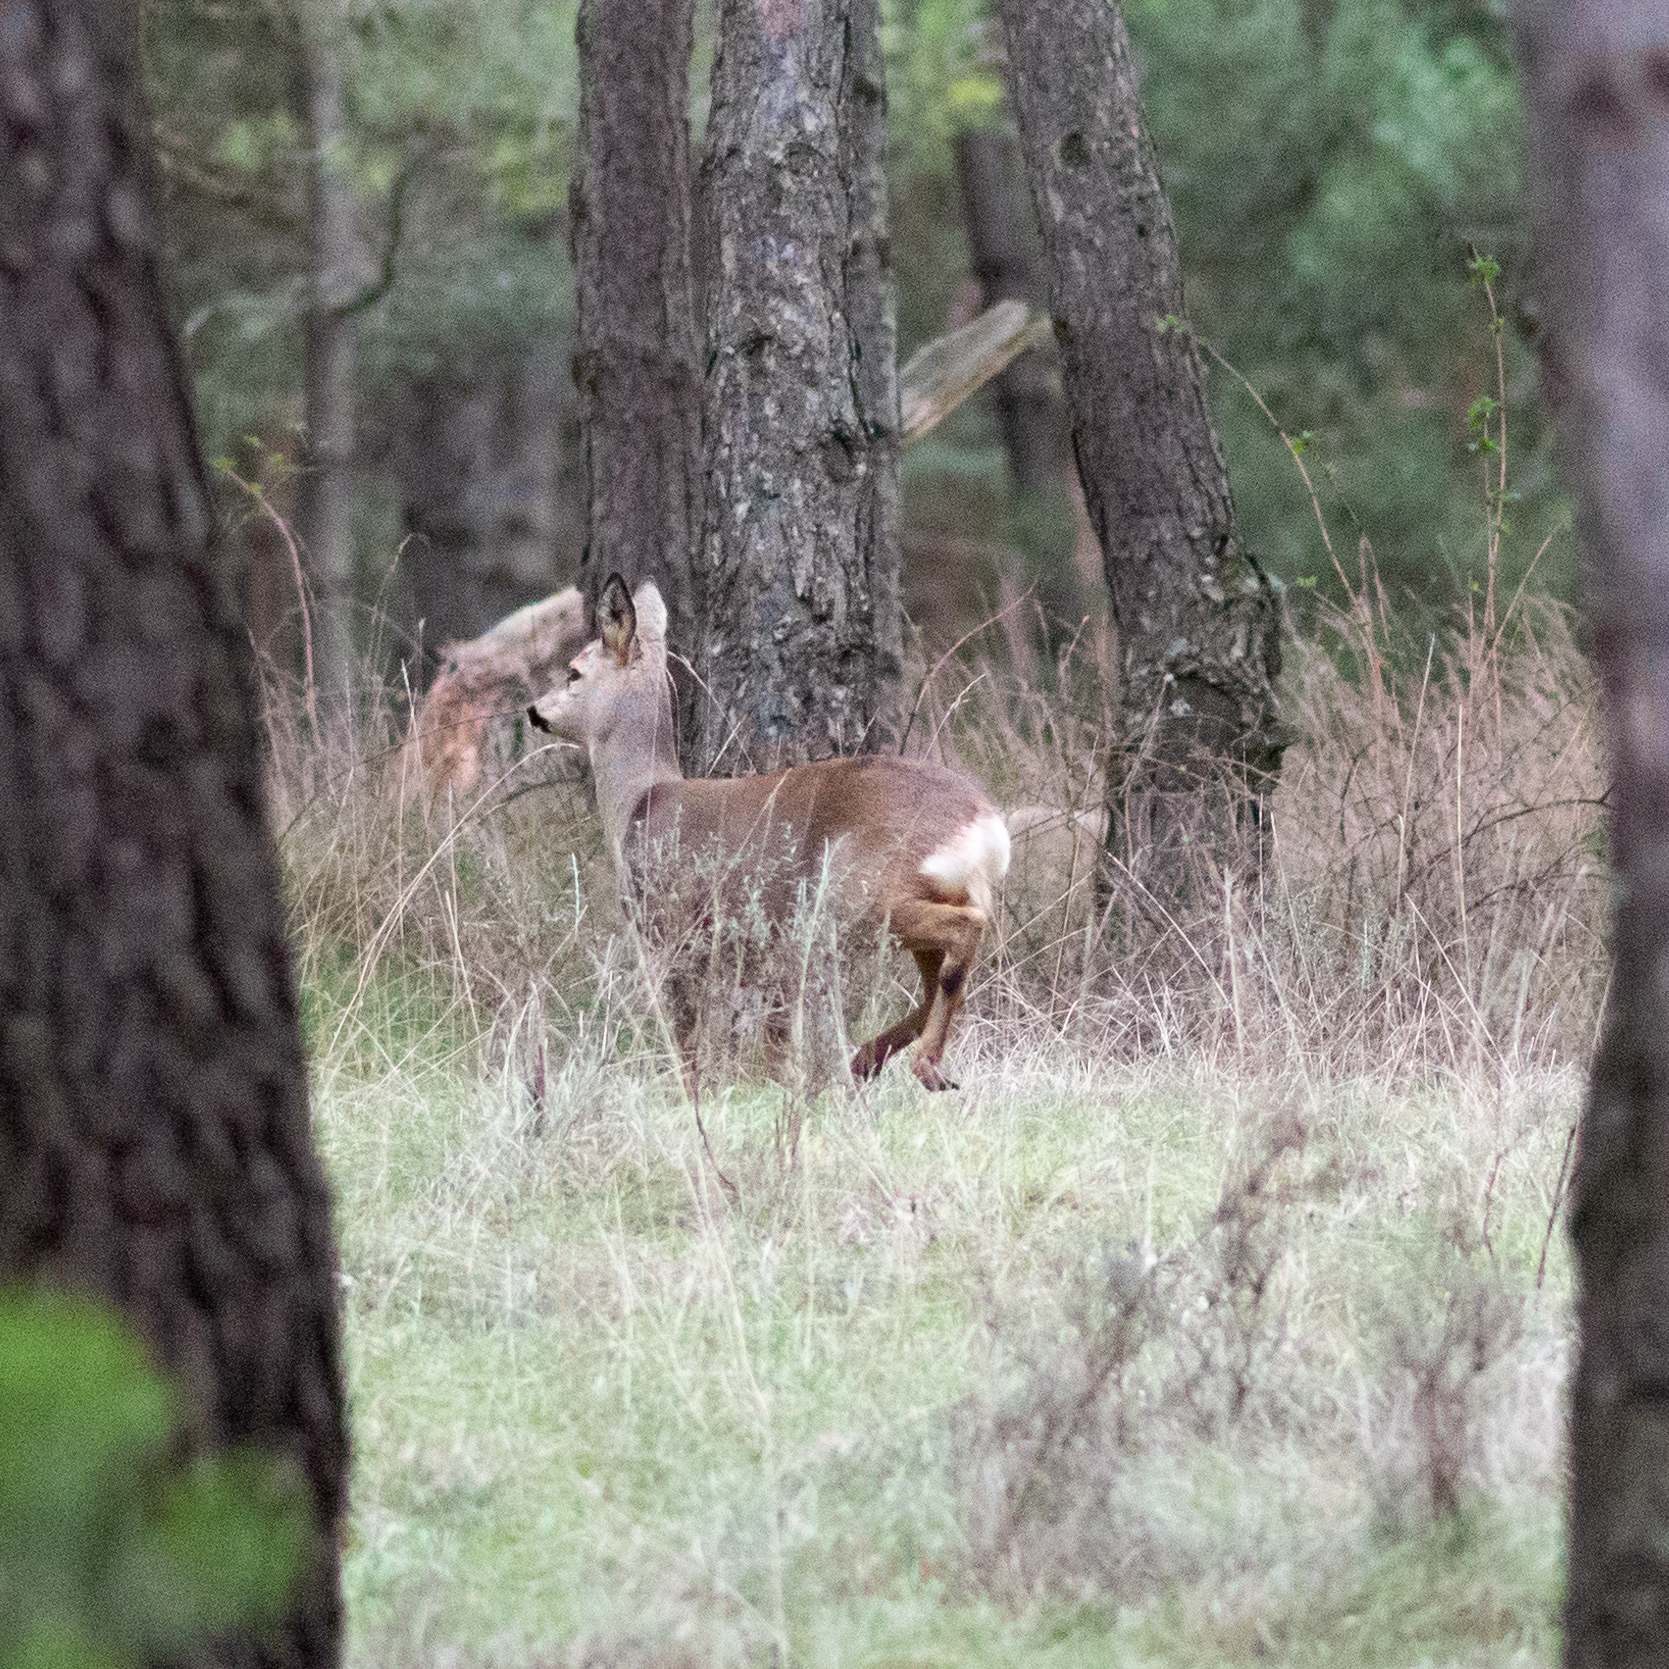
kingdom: Animalia
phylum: Chordata
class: Mammalia
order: Artiodactyla
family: Cervidae
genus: Capreolus
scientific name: Capreolus capreolus
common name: Western roe deer
